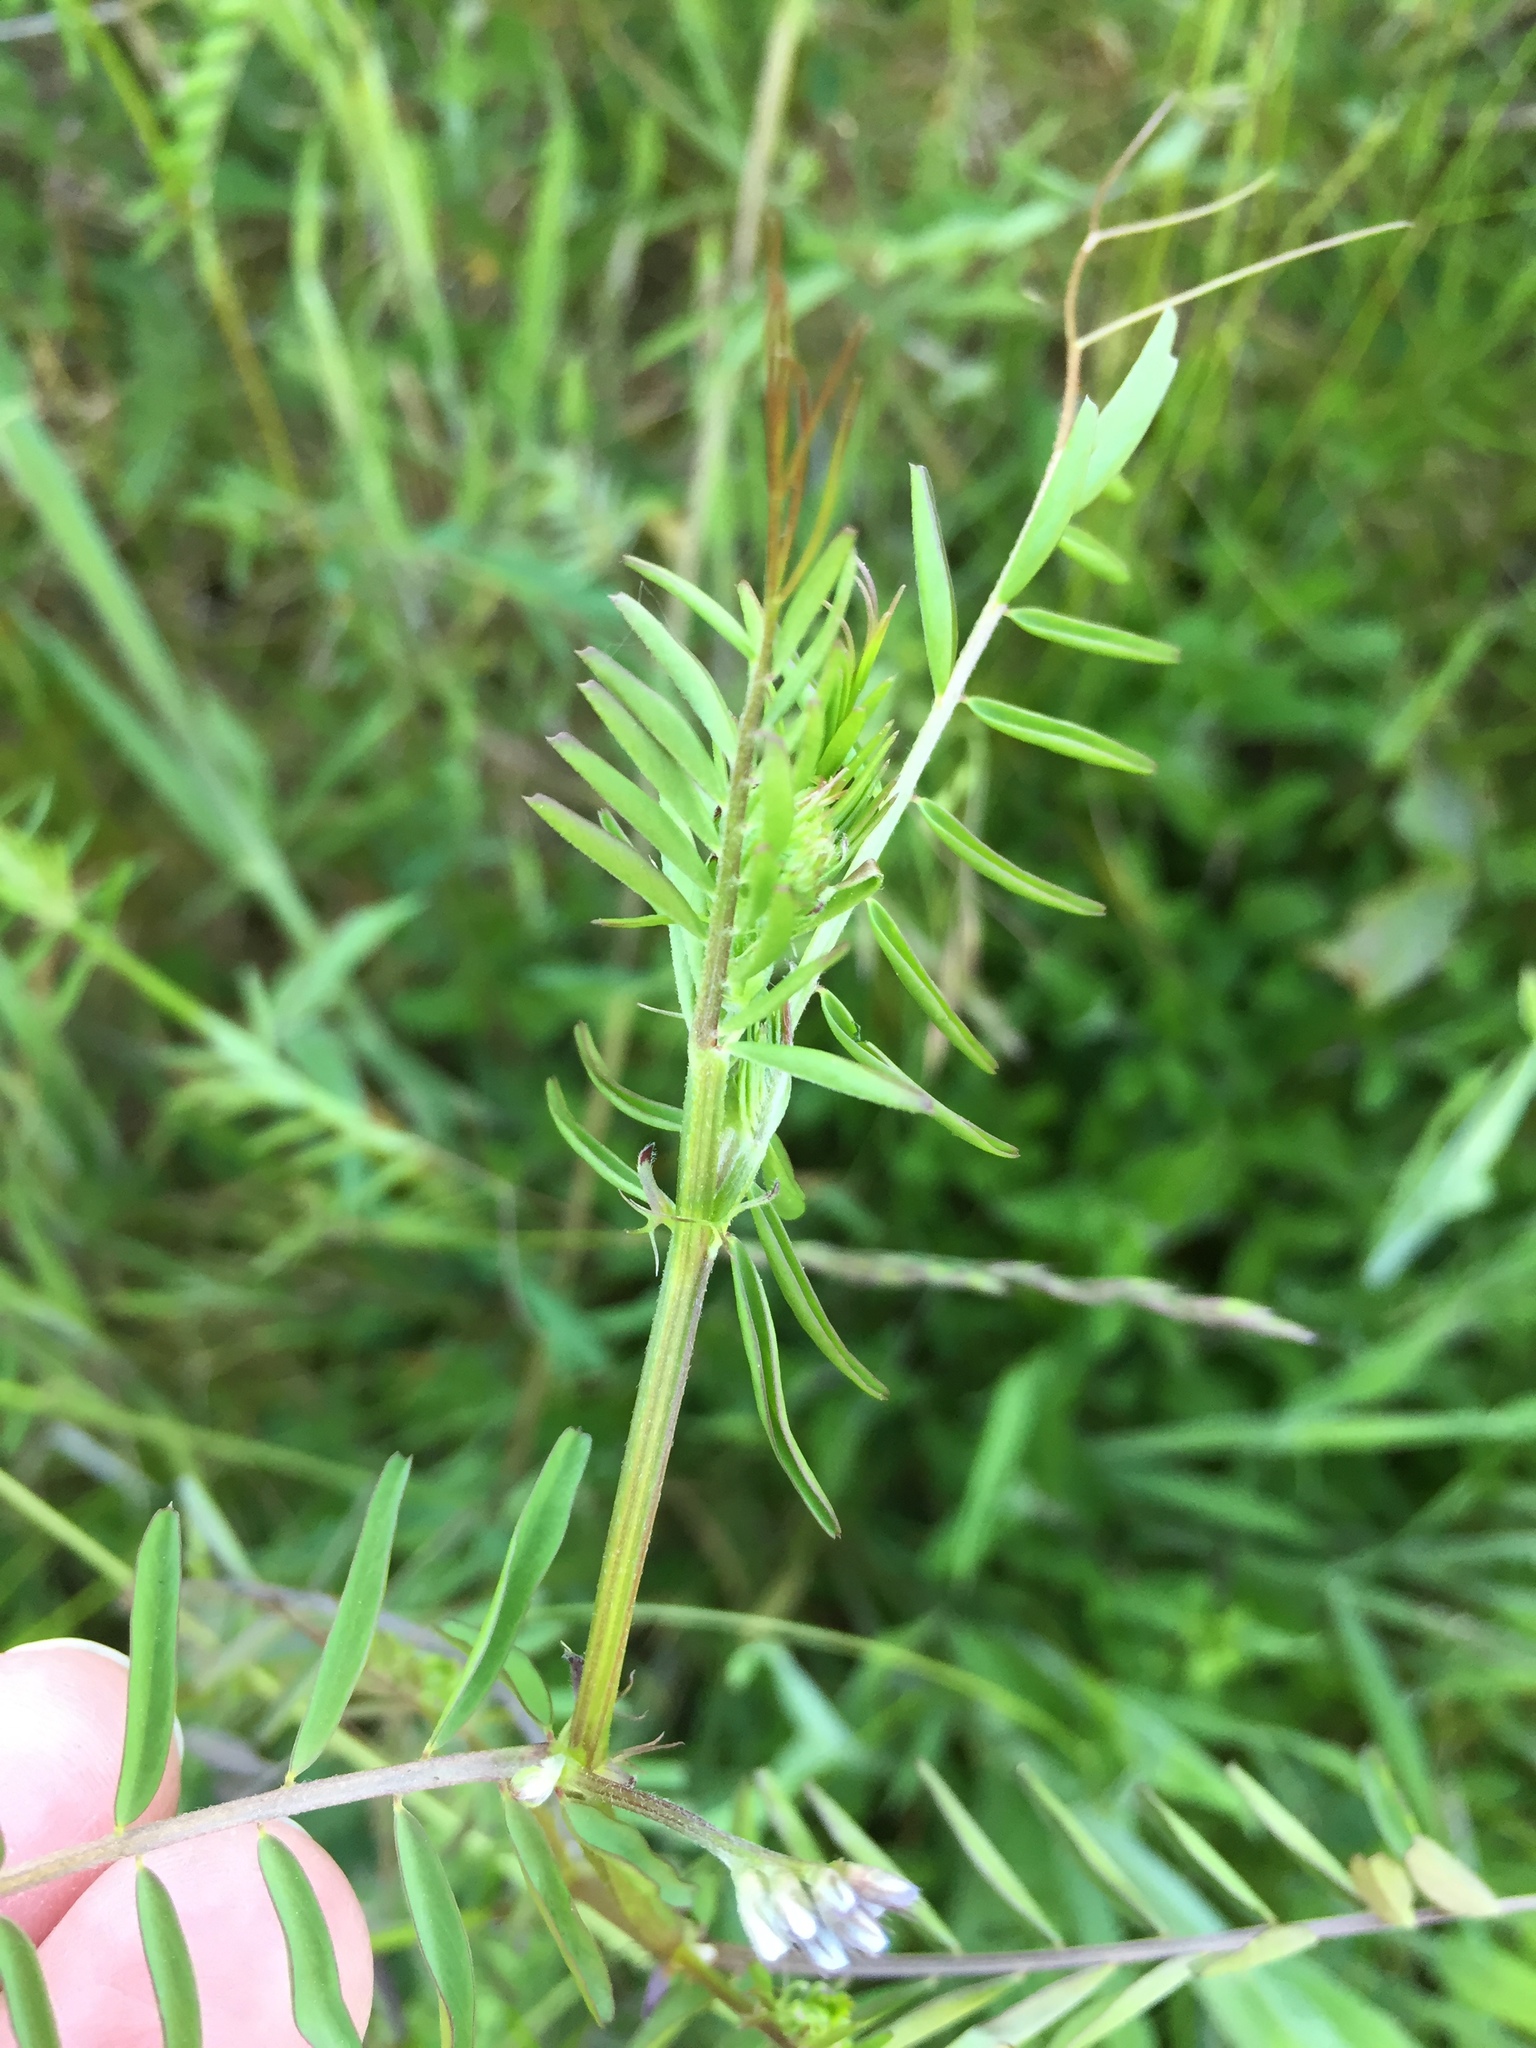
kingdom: Plantae
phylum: Tracheophyta
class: Magnoliopsida
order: Fabales
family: Fabaceae
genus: Vicia
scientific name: Vicia hirsuta
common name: Tiny vetch
